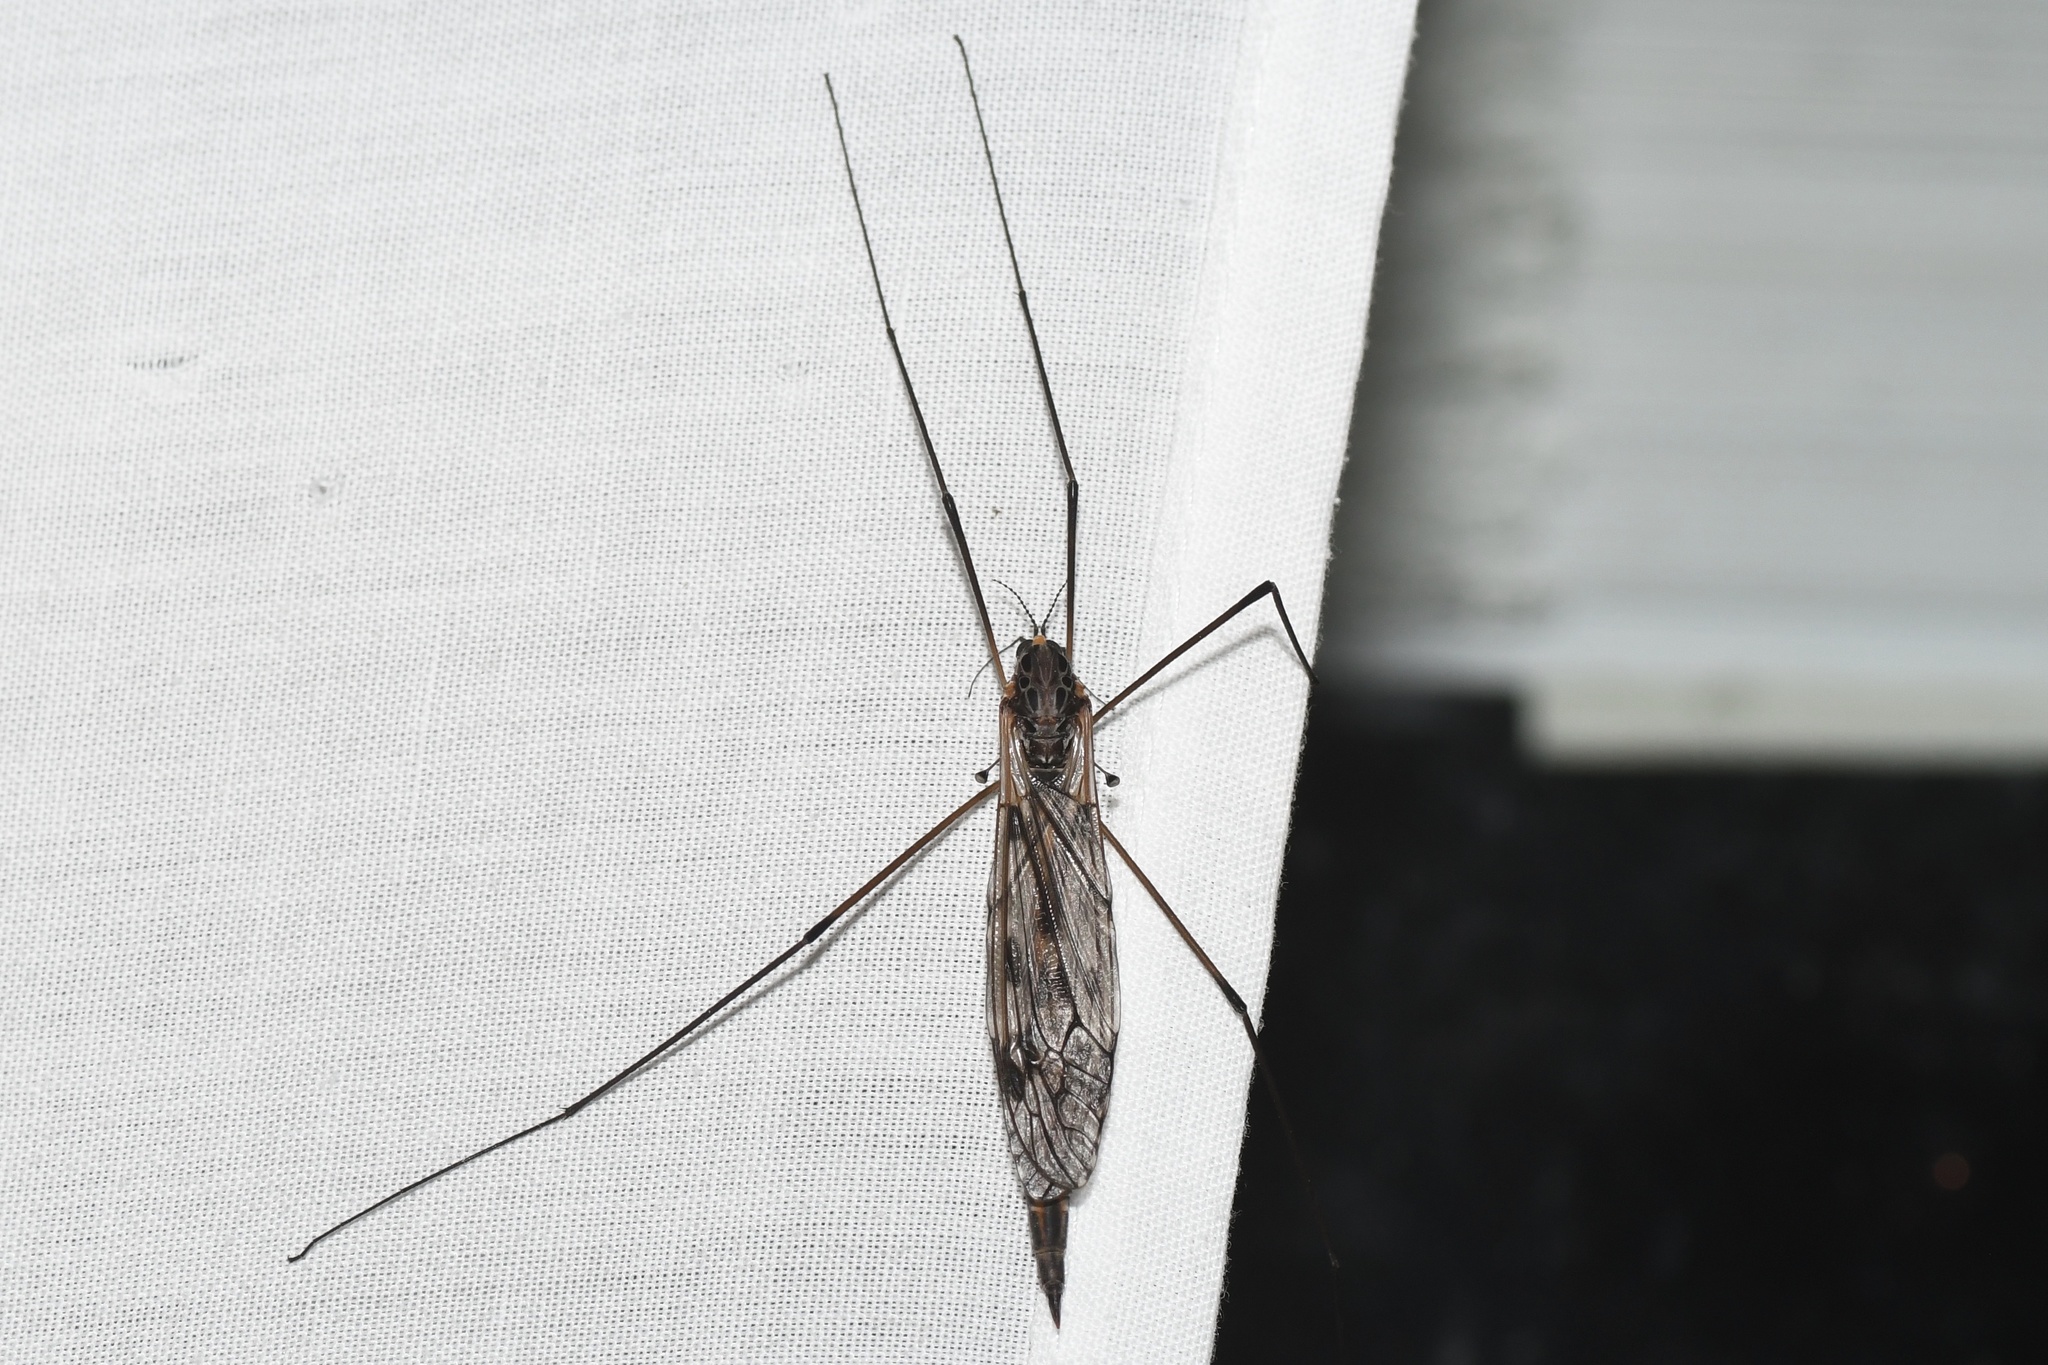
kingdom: Animalia
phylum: Arthropoda
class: Insecta
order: Diptera
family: Tipulidae
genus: Tipula
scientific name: Tipula metacomet
